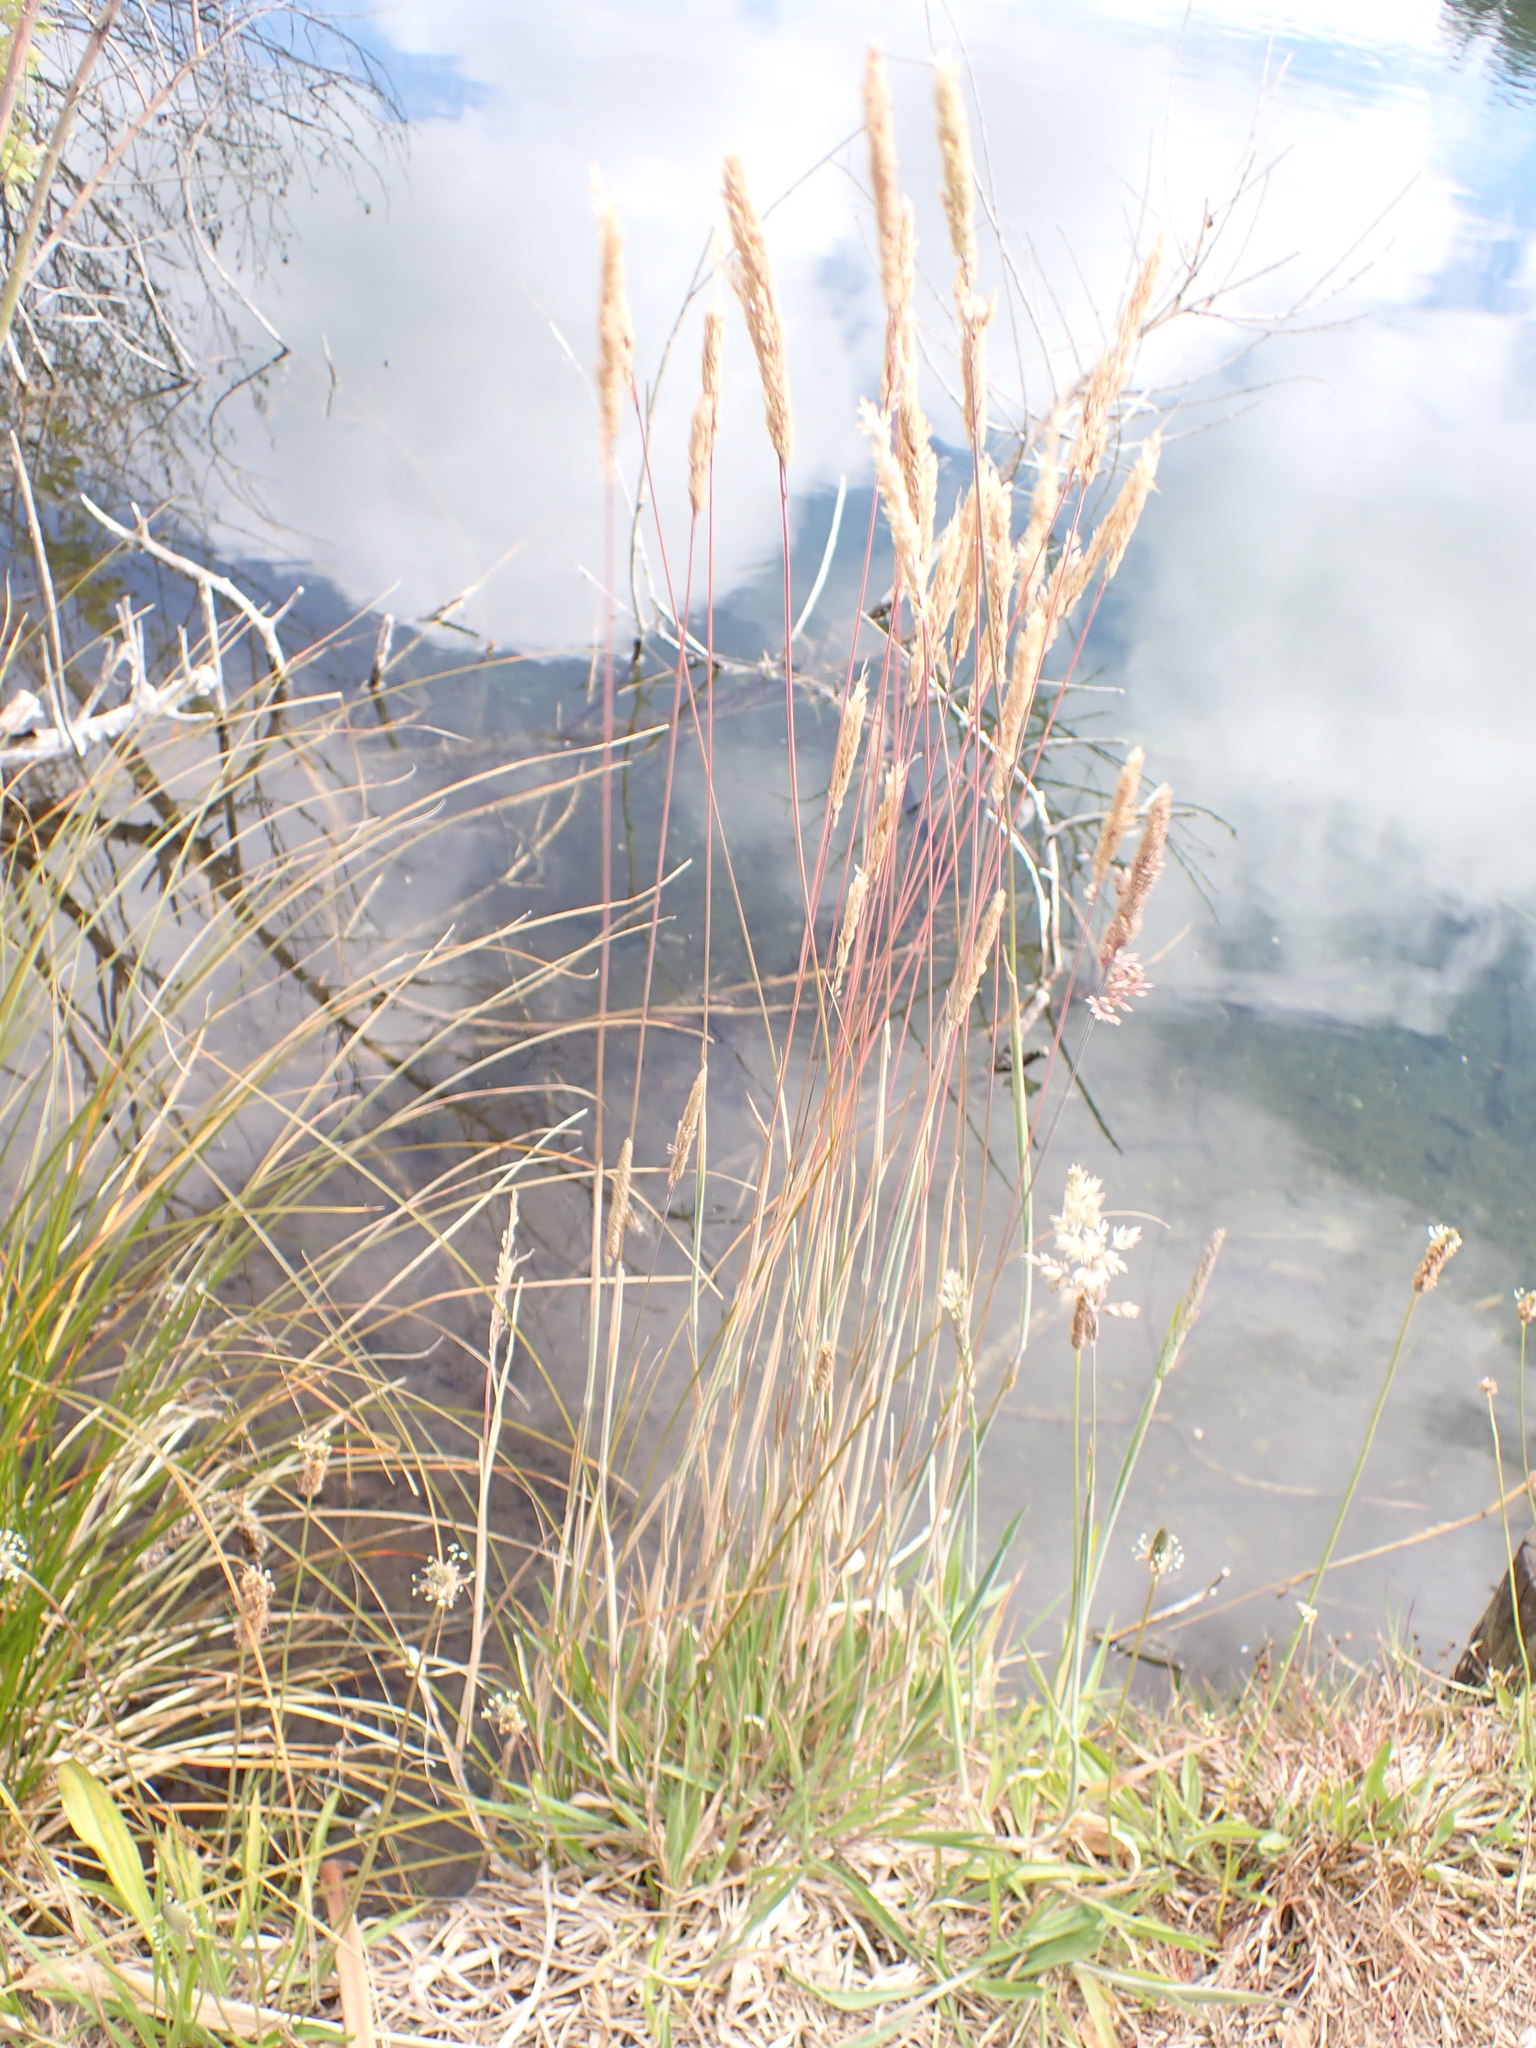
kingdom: Plantae
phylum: Tracheophyta
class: Liliopsida
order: Poales
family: Poaceae
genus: Holcus
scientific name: Holcus lanatus
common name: Yorkshire-fog
